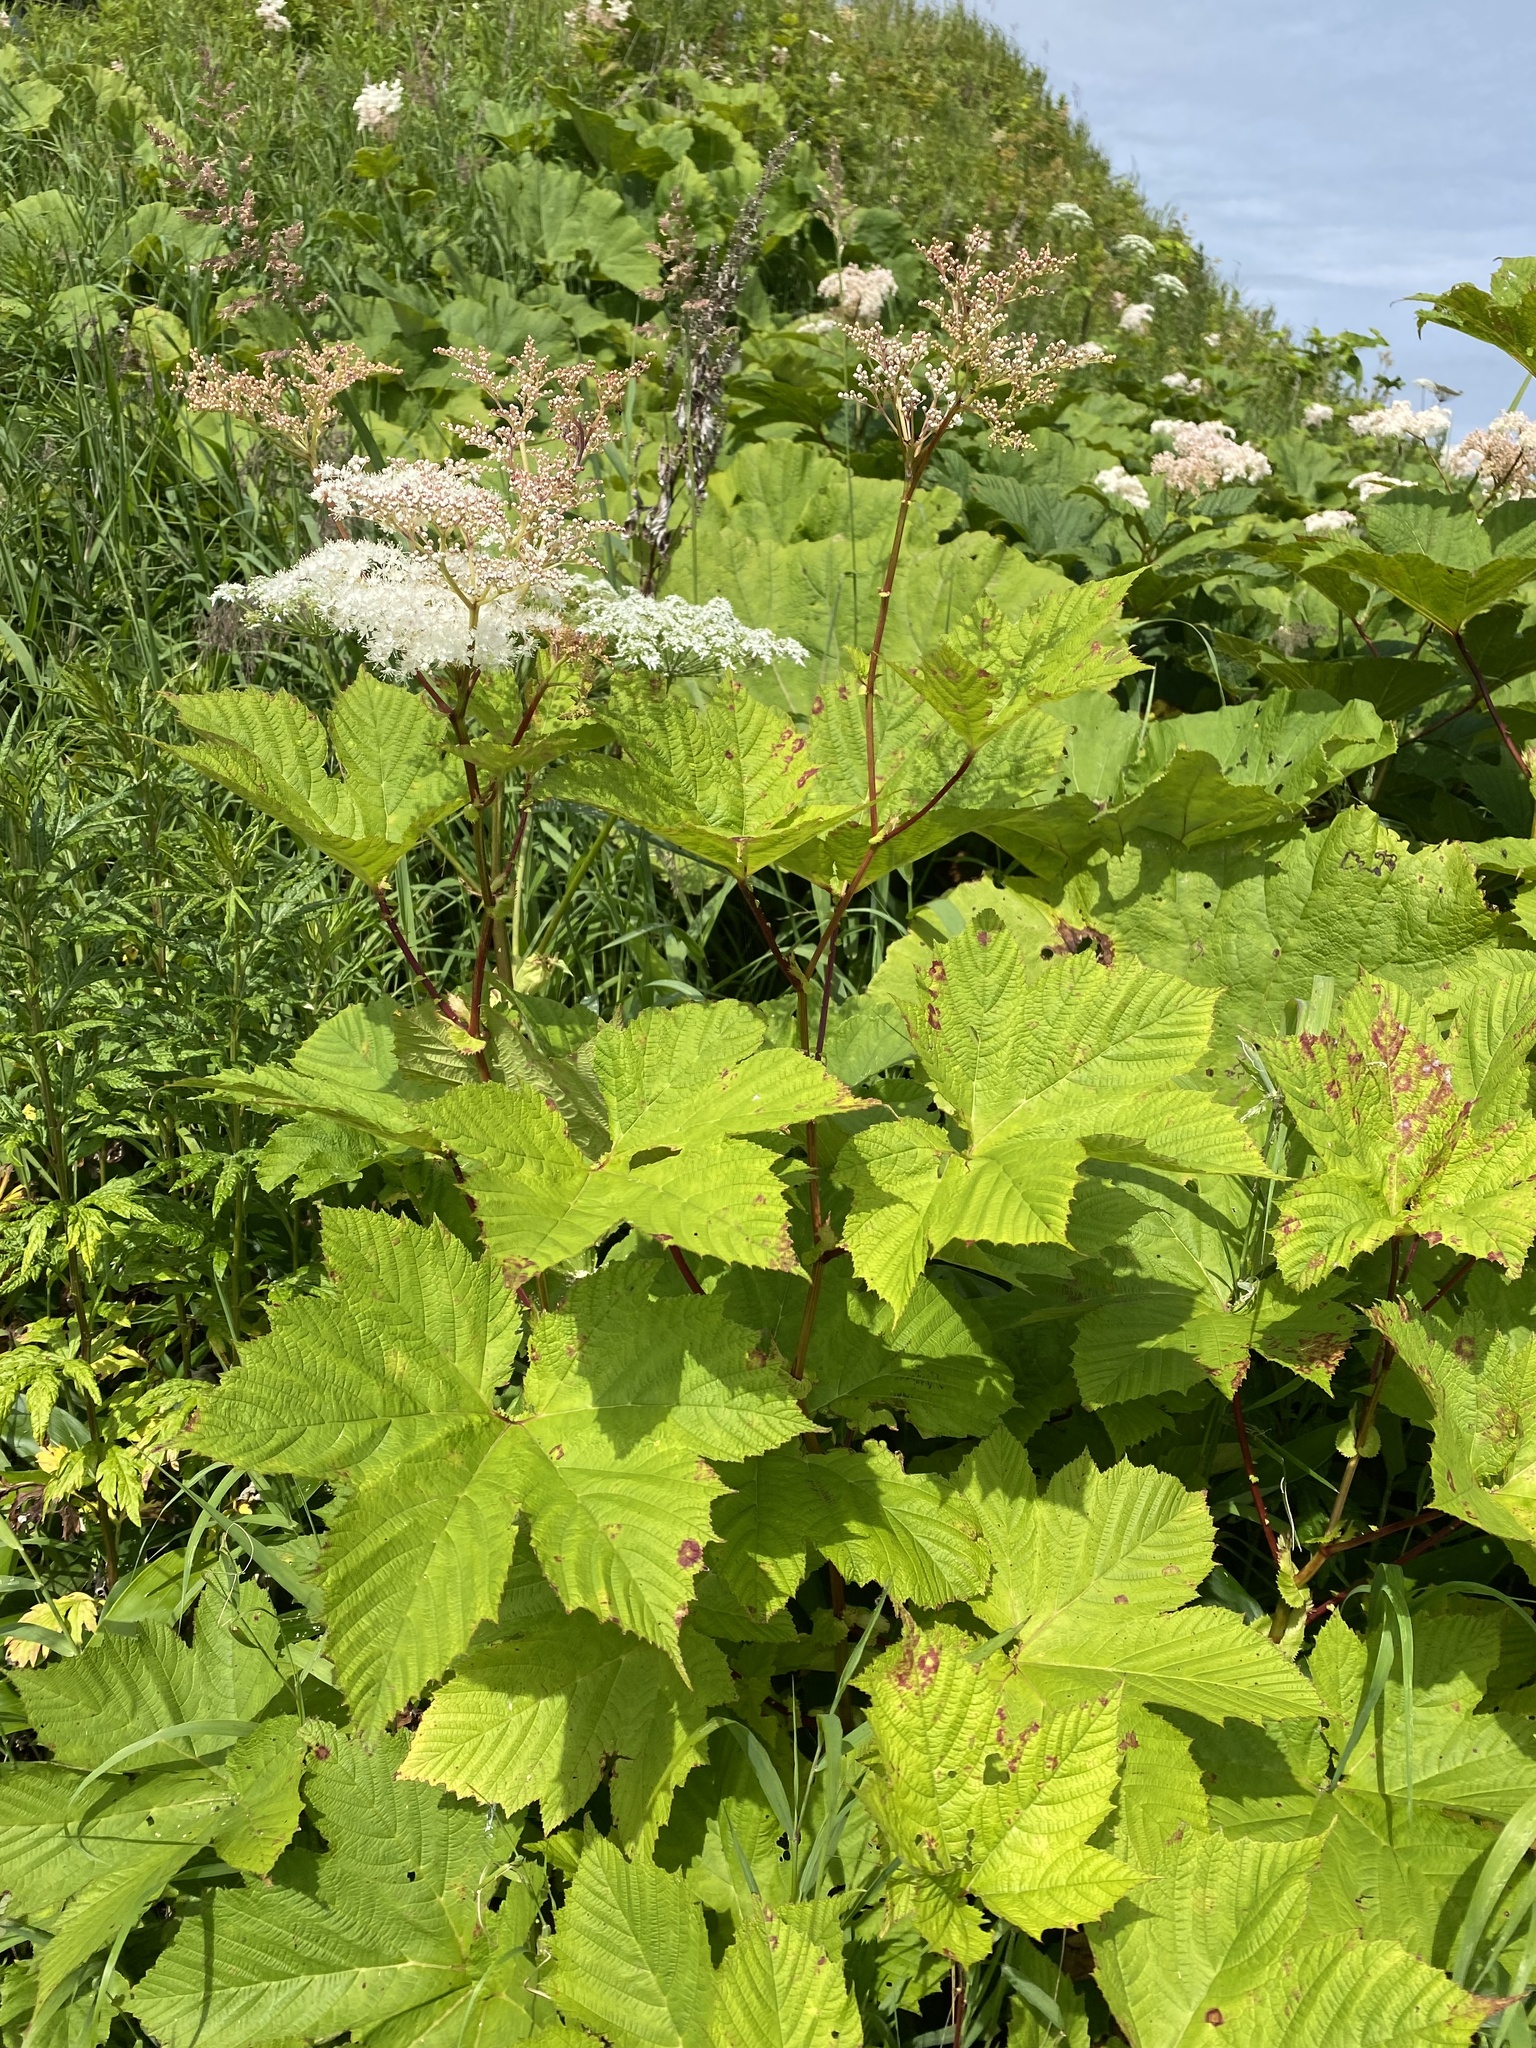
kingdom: Plantae
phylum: Tracheophyta
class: Magnoliopsida
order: Rosales
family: Rosaceae
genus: Filipendula
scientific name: Filipendula camtschatica
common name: Giant meadowsweet
